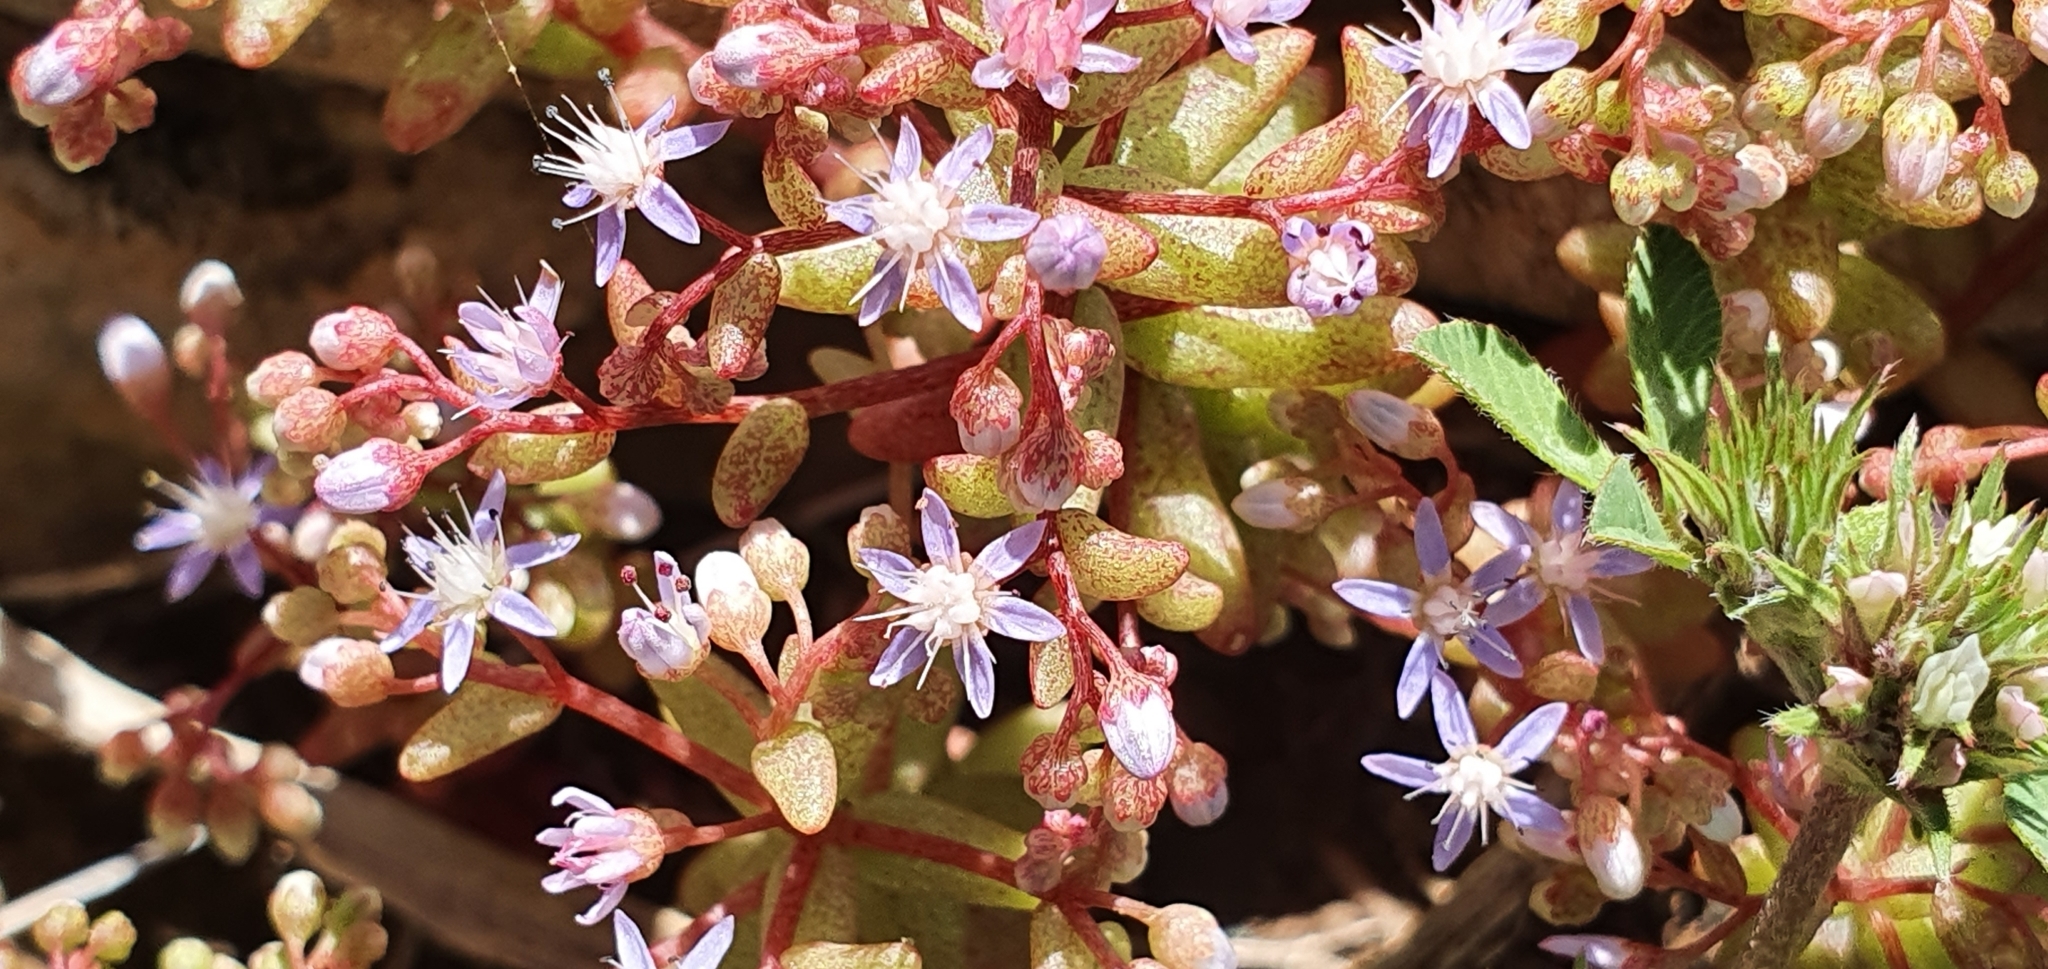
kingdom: Plantae
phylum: Tracheophyta
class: Magnoliopsida
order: Saxifragales
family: Crassulaceae
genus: Sedum
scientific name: Sedum caeruleum
